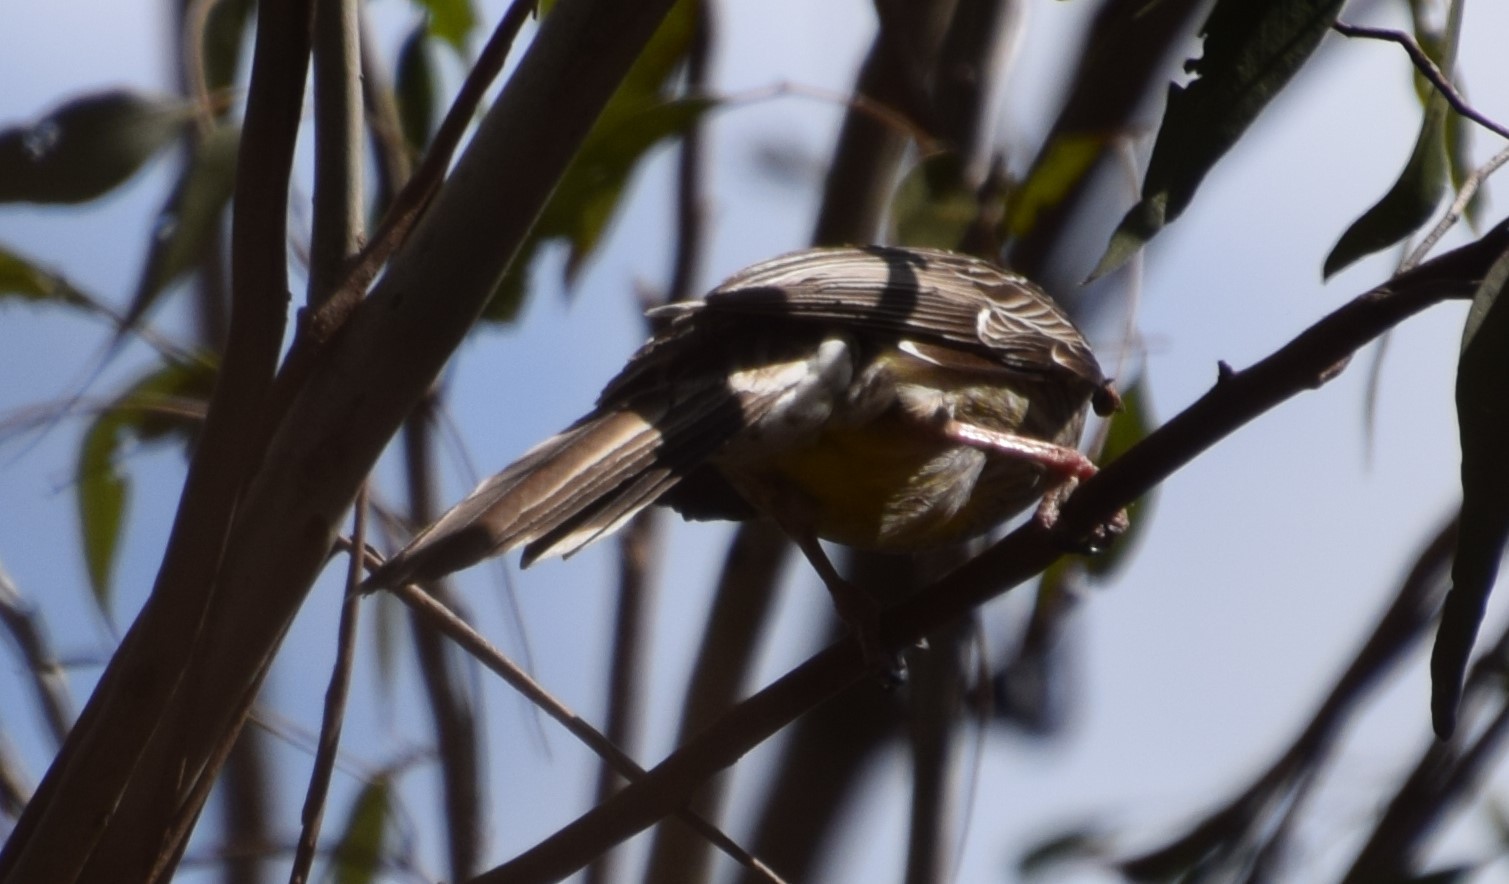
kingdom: Animalia
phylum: Chordata
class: Aves
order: Passeriformes
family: Meliphagidae
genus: Anthochaera
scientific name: Anthochaera carunculata
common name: Red wattlebird
